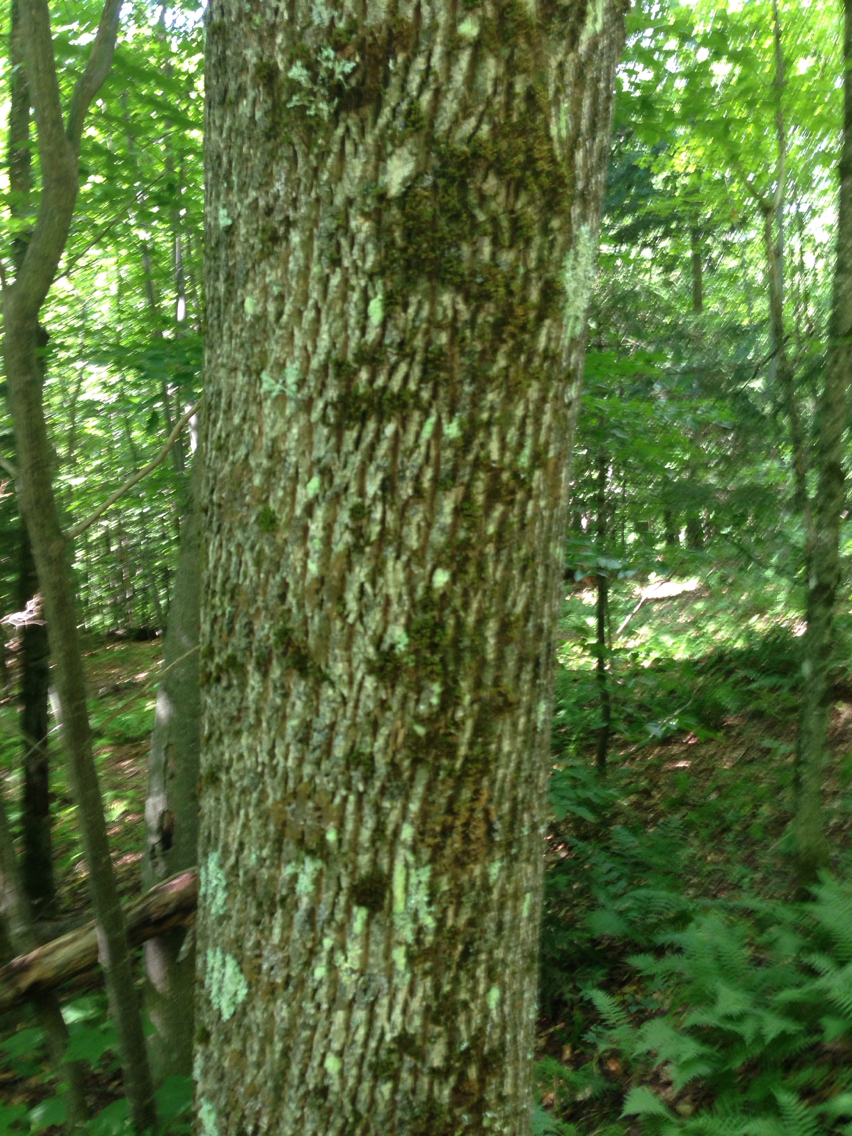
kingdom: Plantae
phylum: Tracheophyta
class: Magnoliopsida
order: Lamiales
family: Oleaceae
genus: Fraxinus
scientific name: Fraxinus americana
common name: White ash
